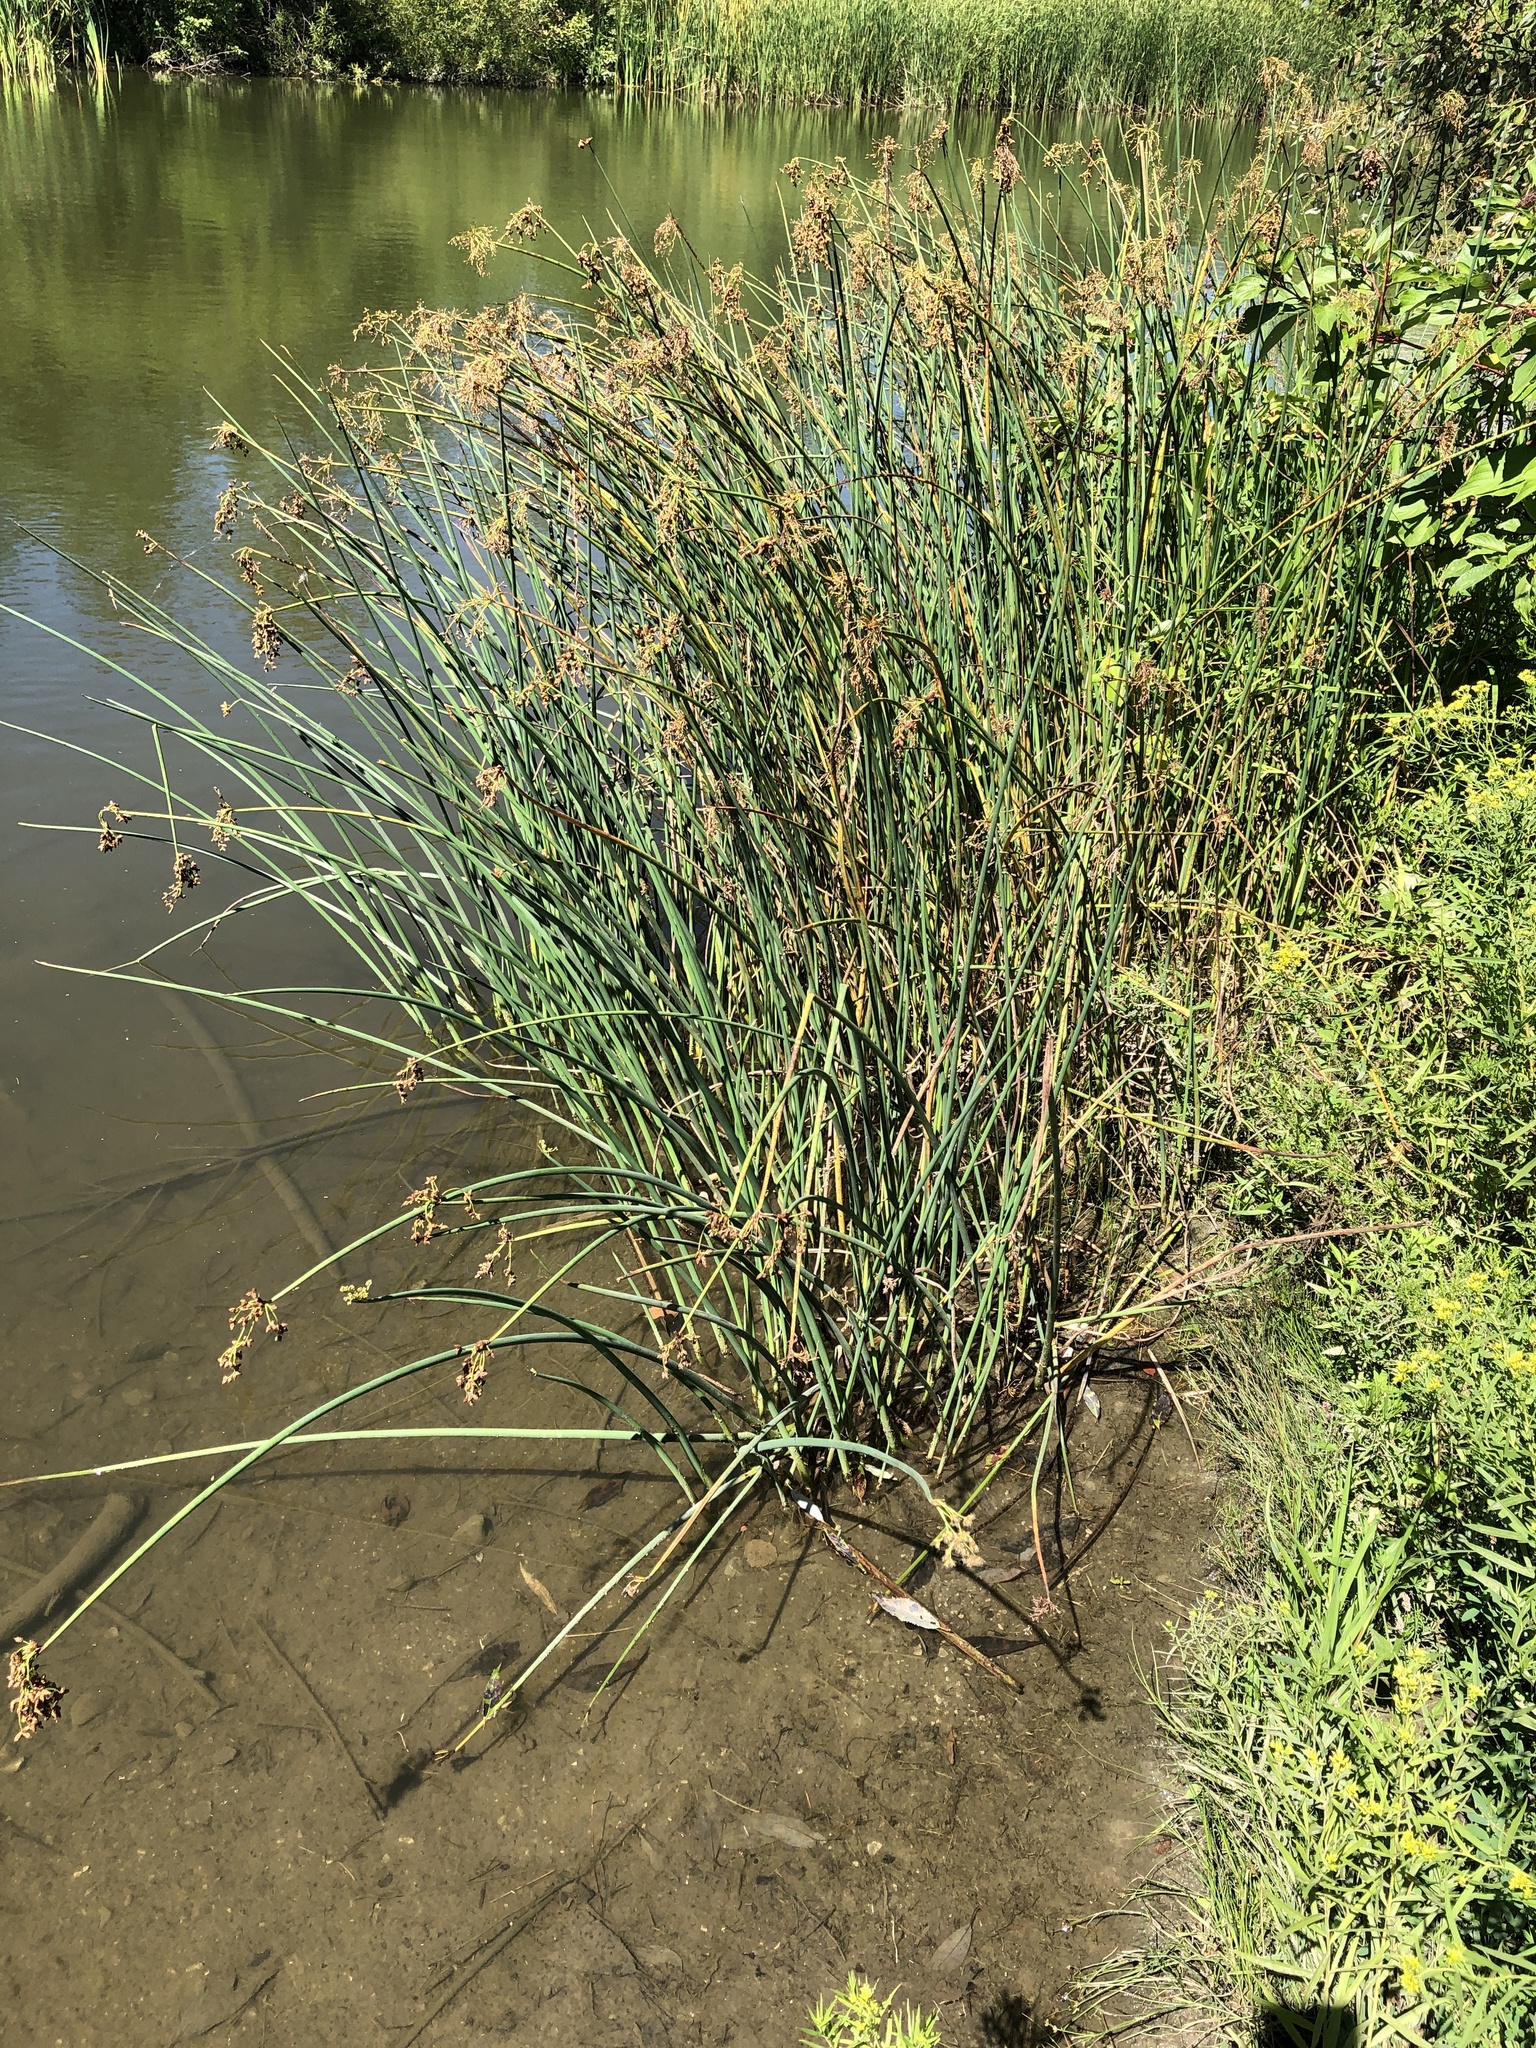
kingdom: Plantae
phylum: Tracheophyta
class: Liliopsida
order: Poales
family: Cyperaceae
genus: Schoenoplectus
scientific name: Schoenoplectus tabernaemontani
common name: Grey club-rush
